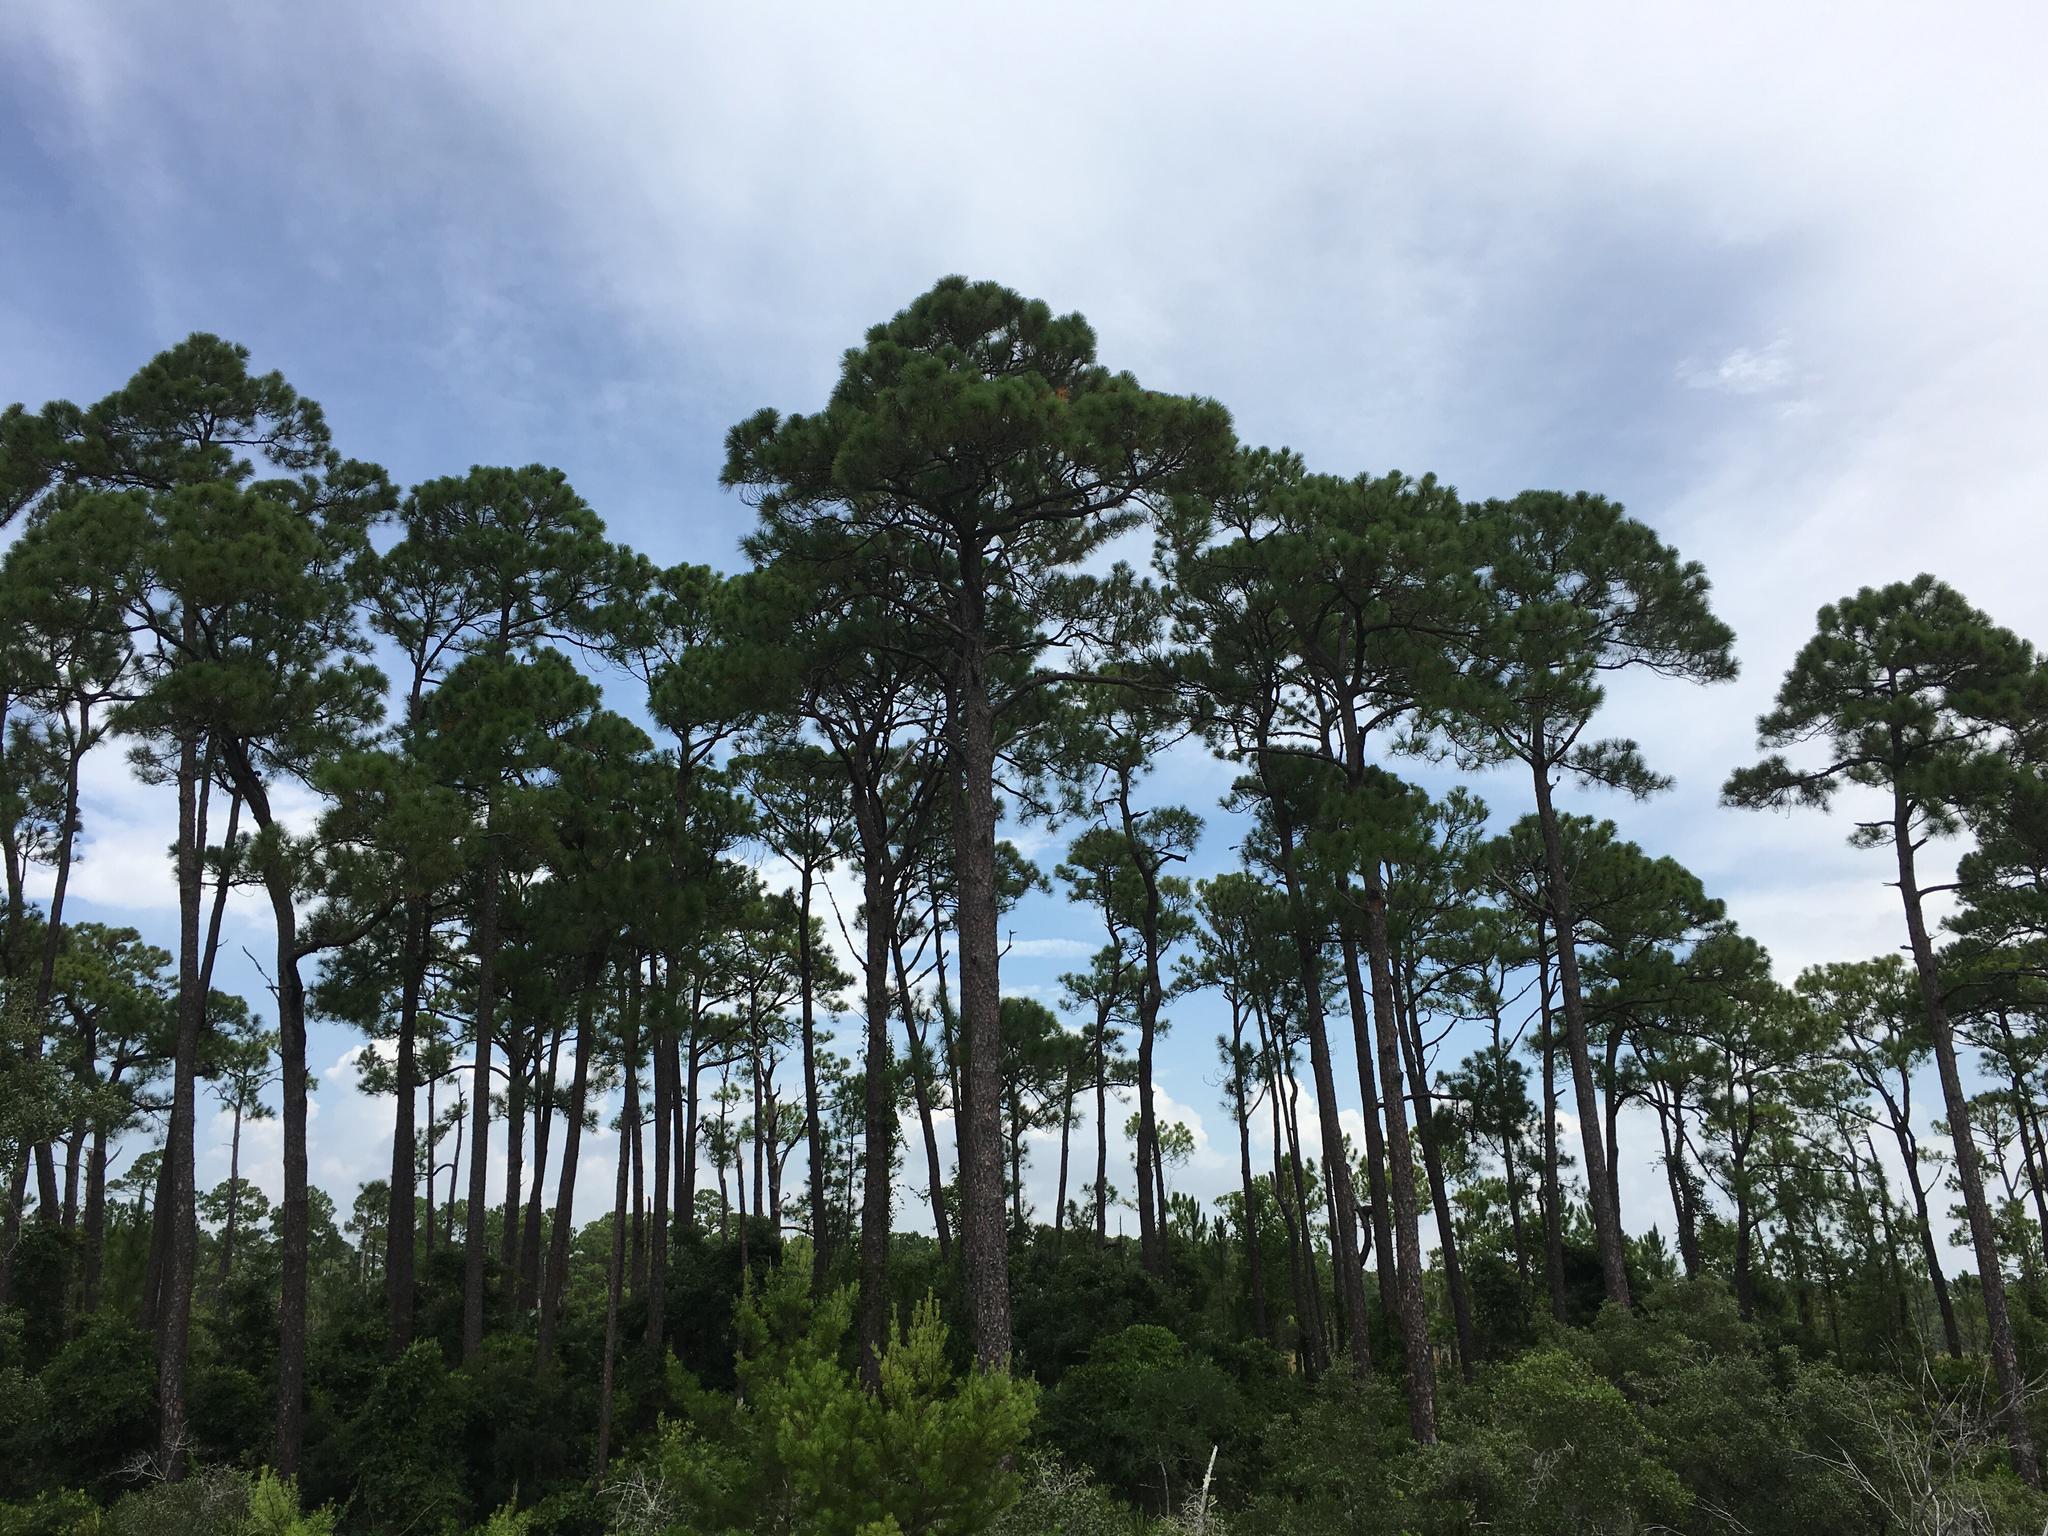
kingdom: Plantae
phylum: Tracheophyta
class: Pinopsida
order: Pinales
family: Pinaceae
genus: Pinus
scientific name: Pinus elliottii
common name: Slash pine
